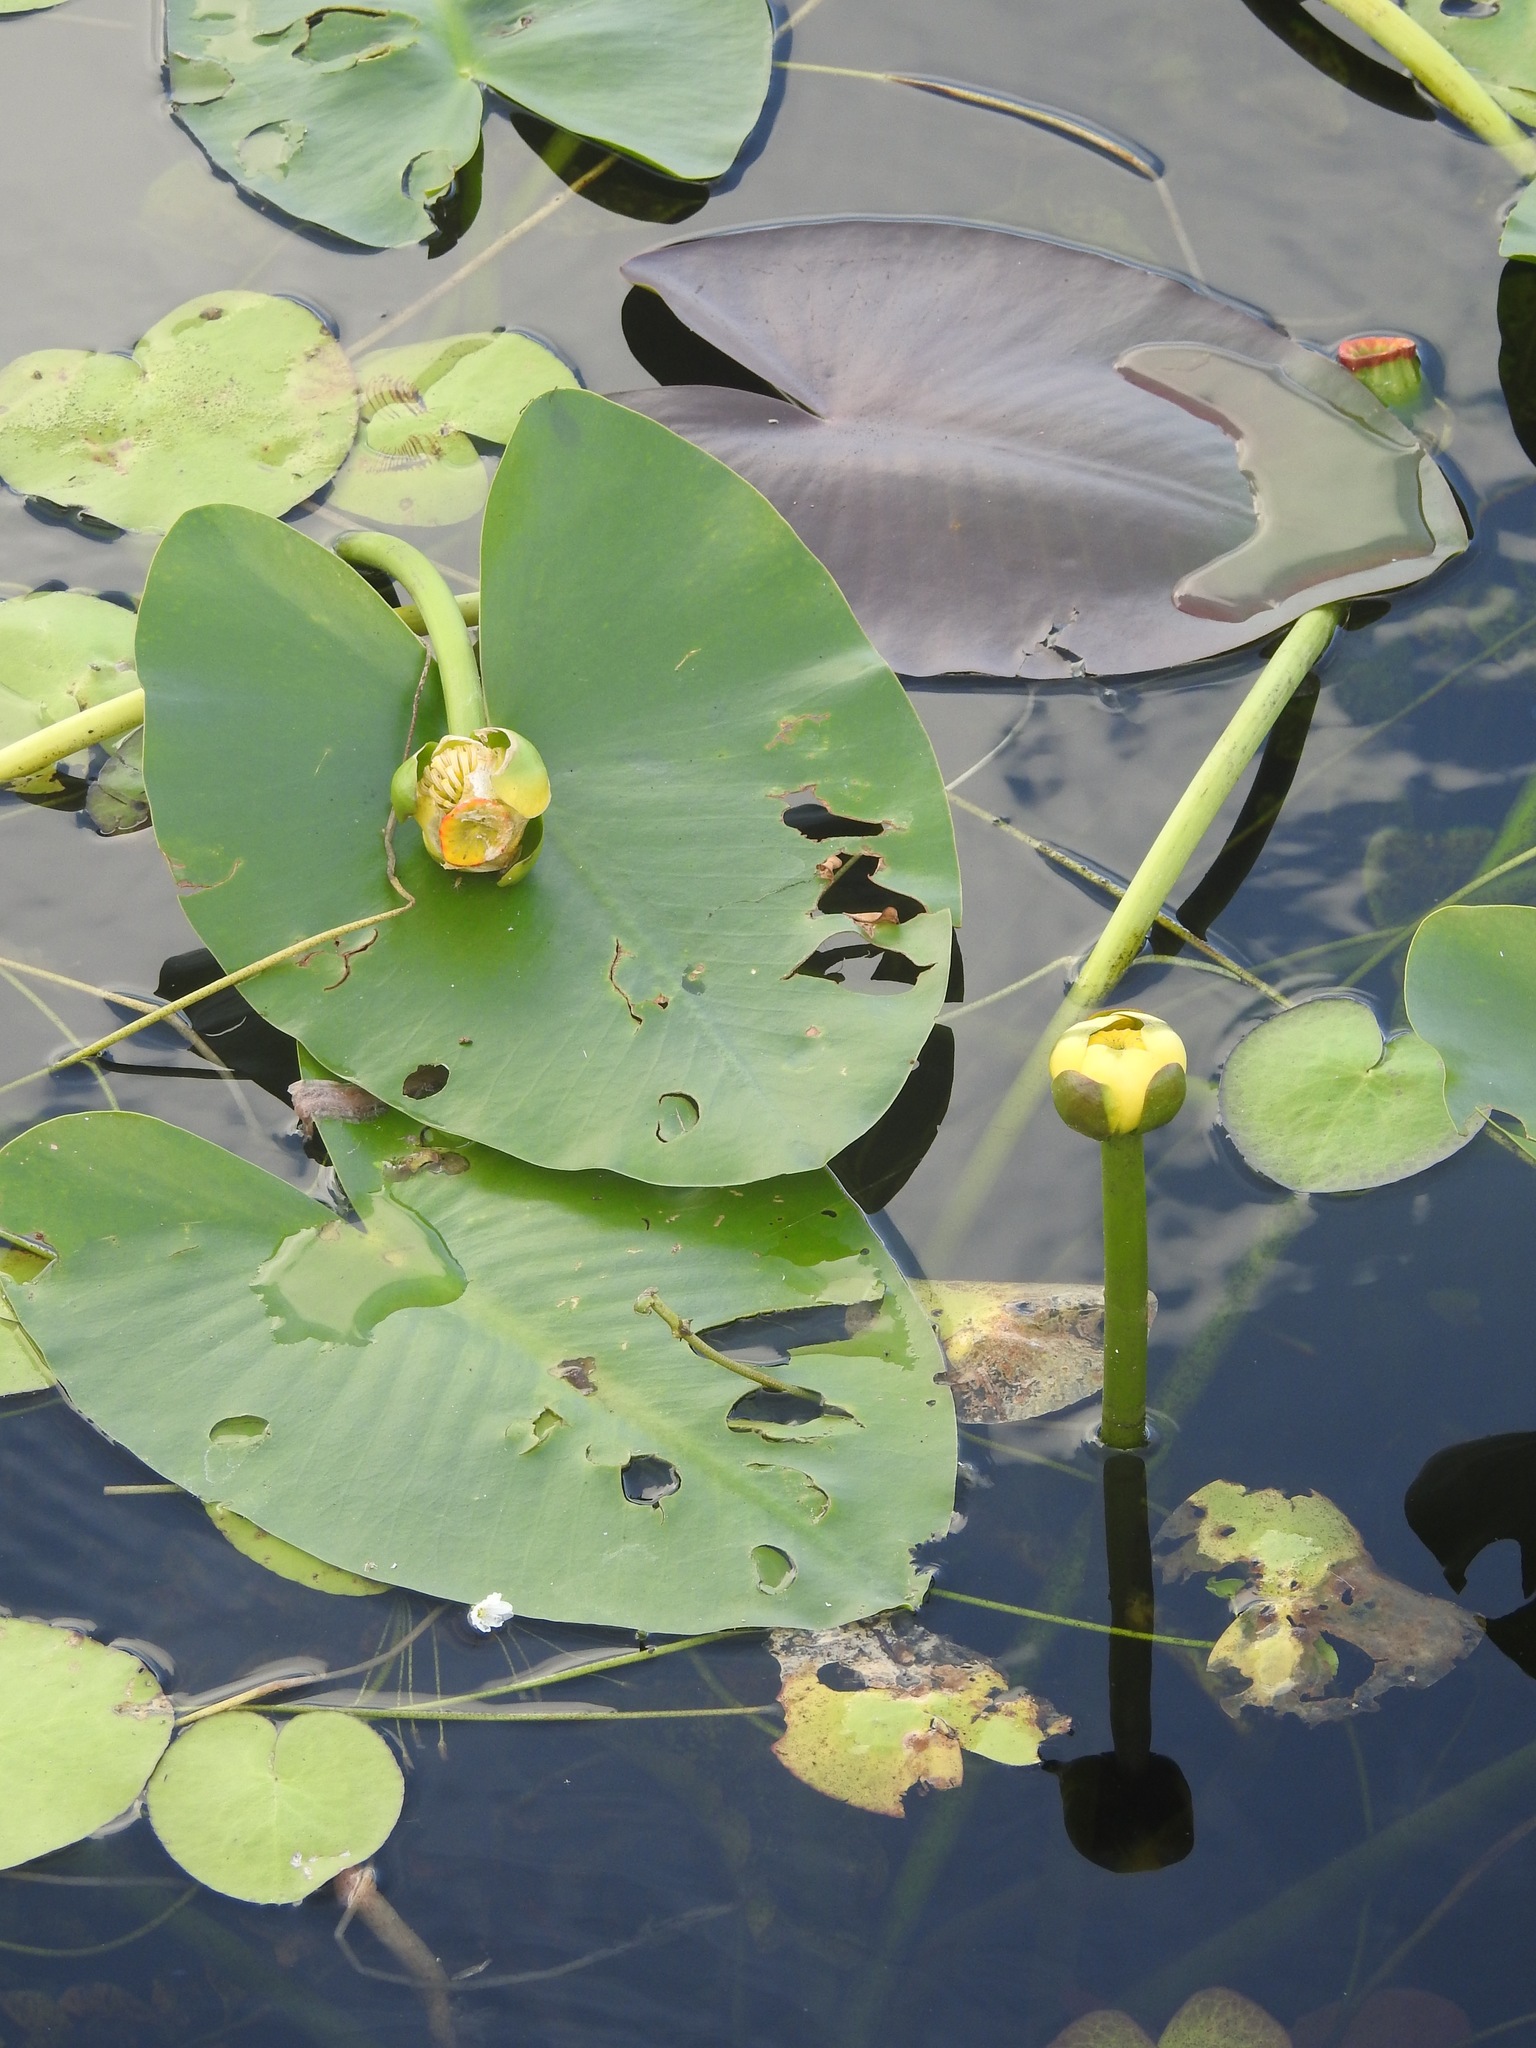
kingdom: Plantae
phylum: Tracheophyta
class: Magnoliopsida
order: Nymphaeales
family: Nymphaeaceae
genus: Nuphar
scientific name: Nuphar advena
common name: Spatter-dock
